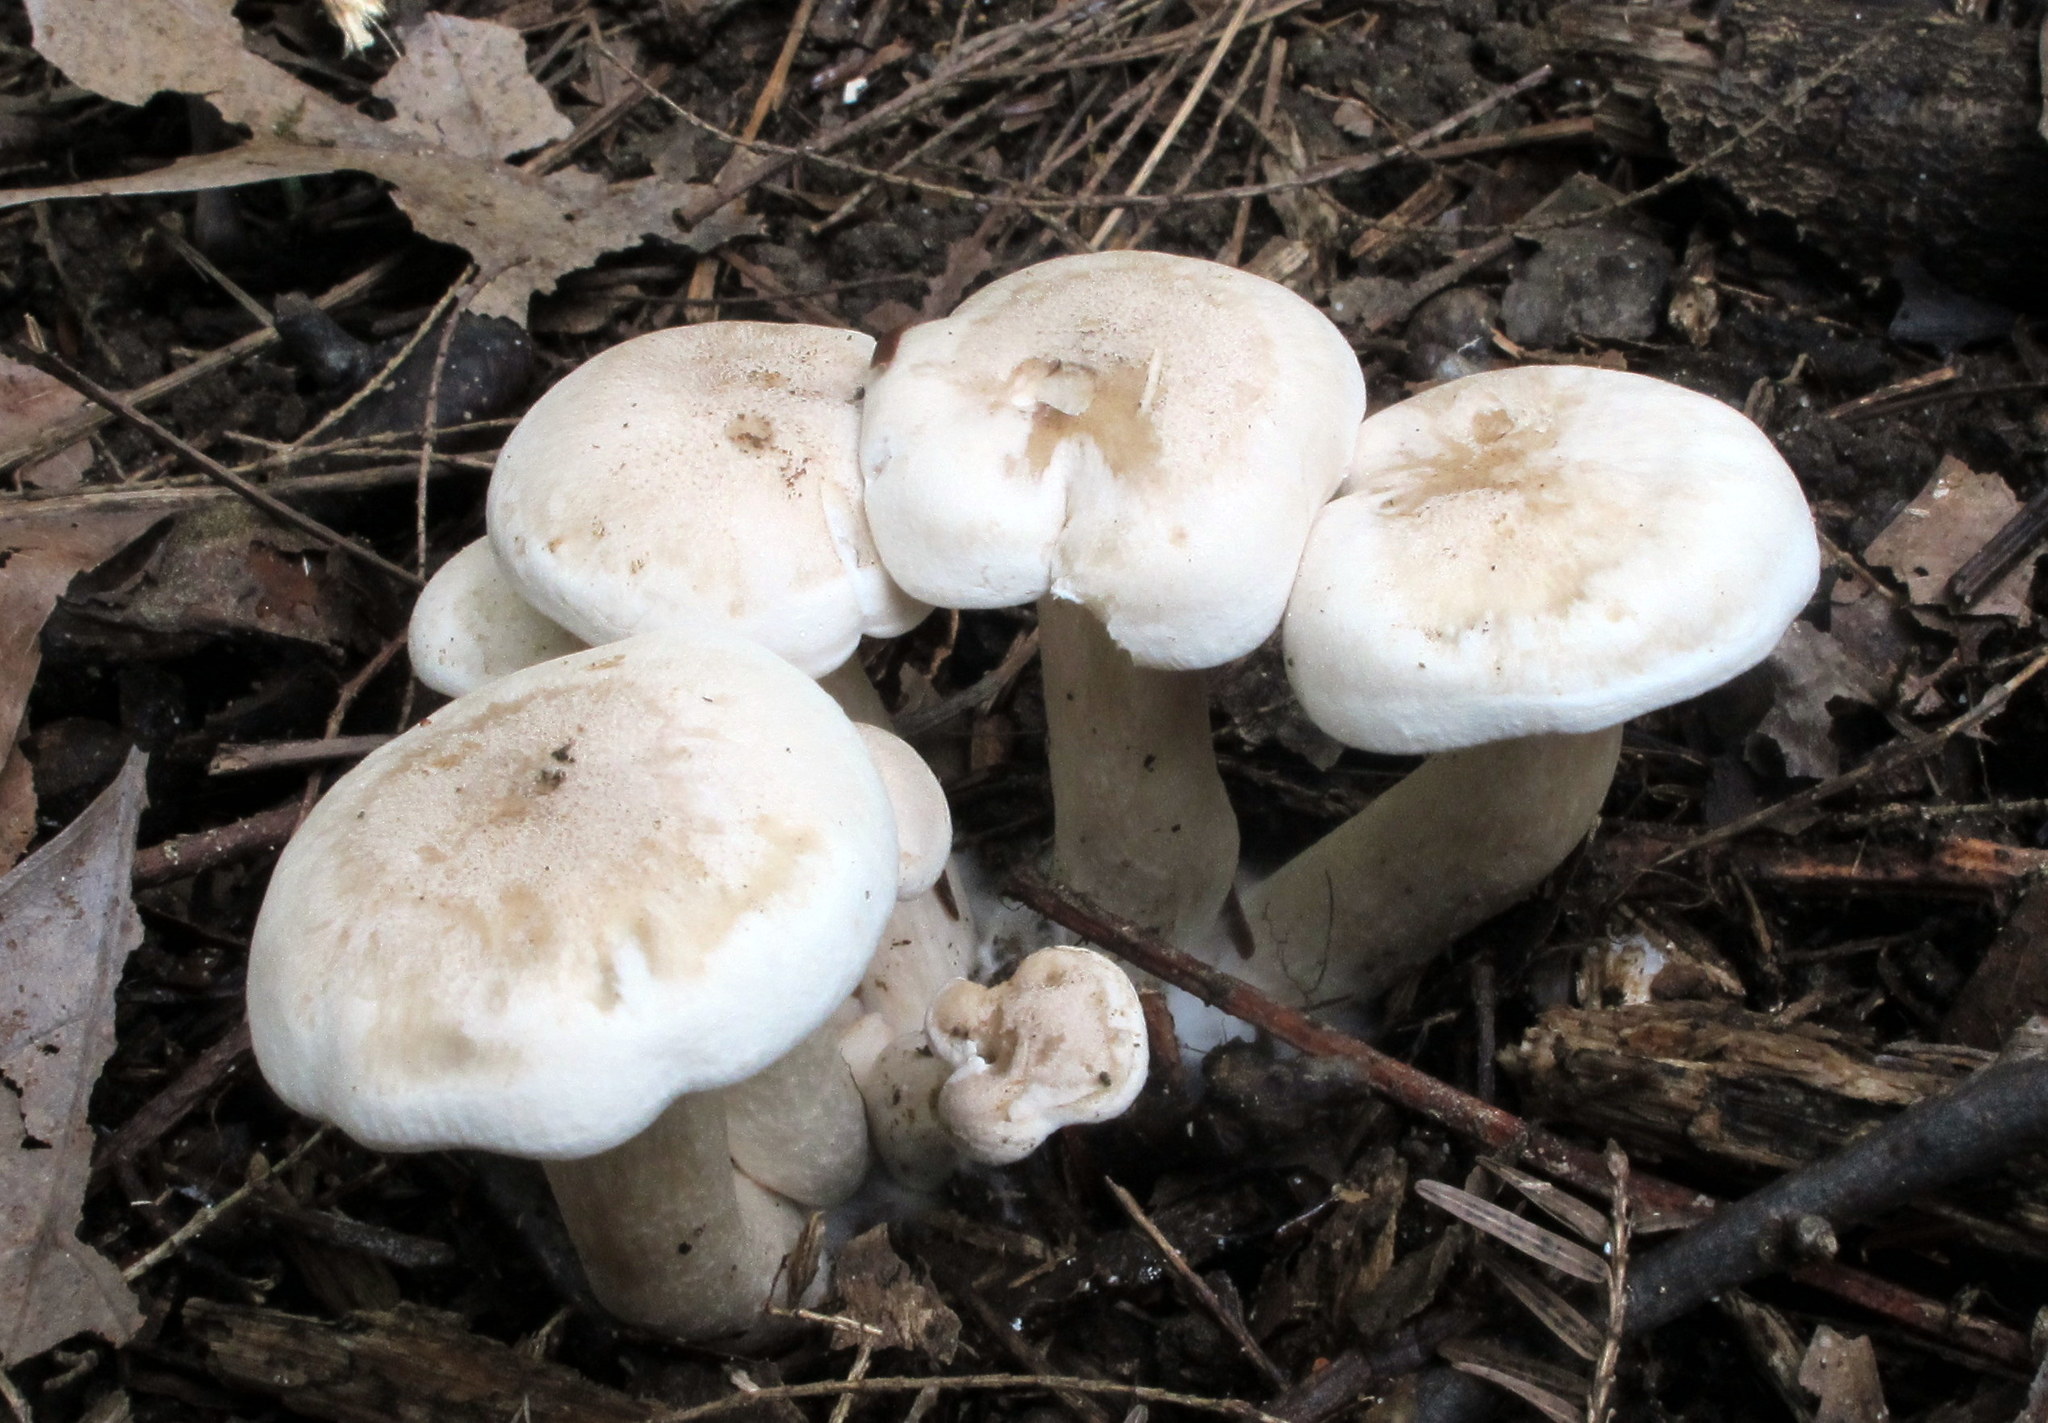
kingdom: Fungi
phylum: Basidiomycota
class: Agaricomycetes
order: Agaricales
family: Tricholomataceae
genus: Lepista
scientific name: Lepista subconnexa
